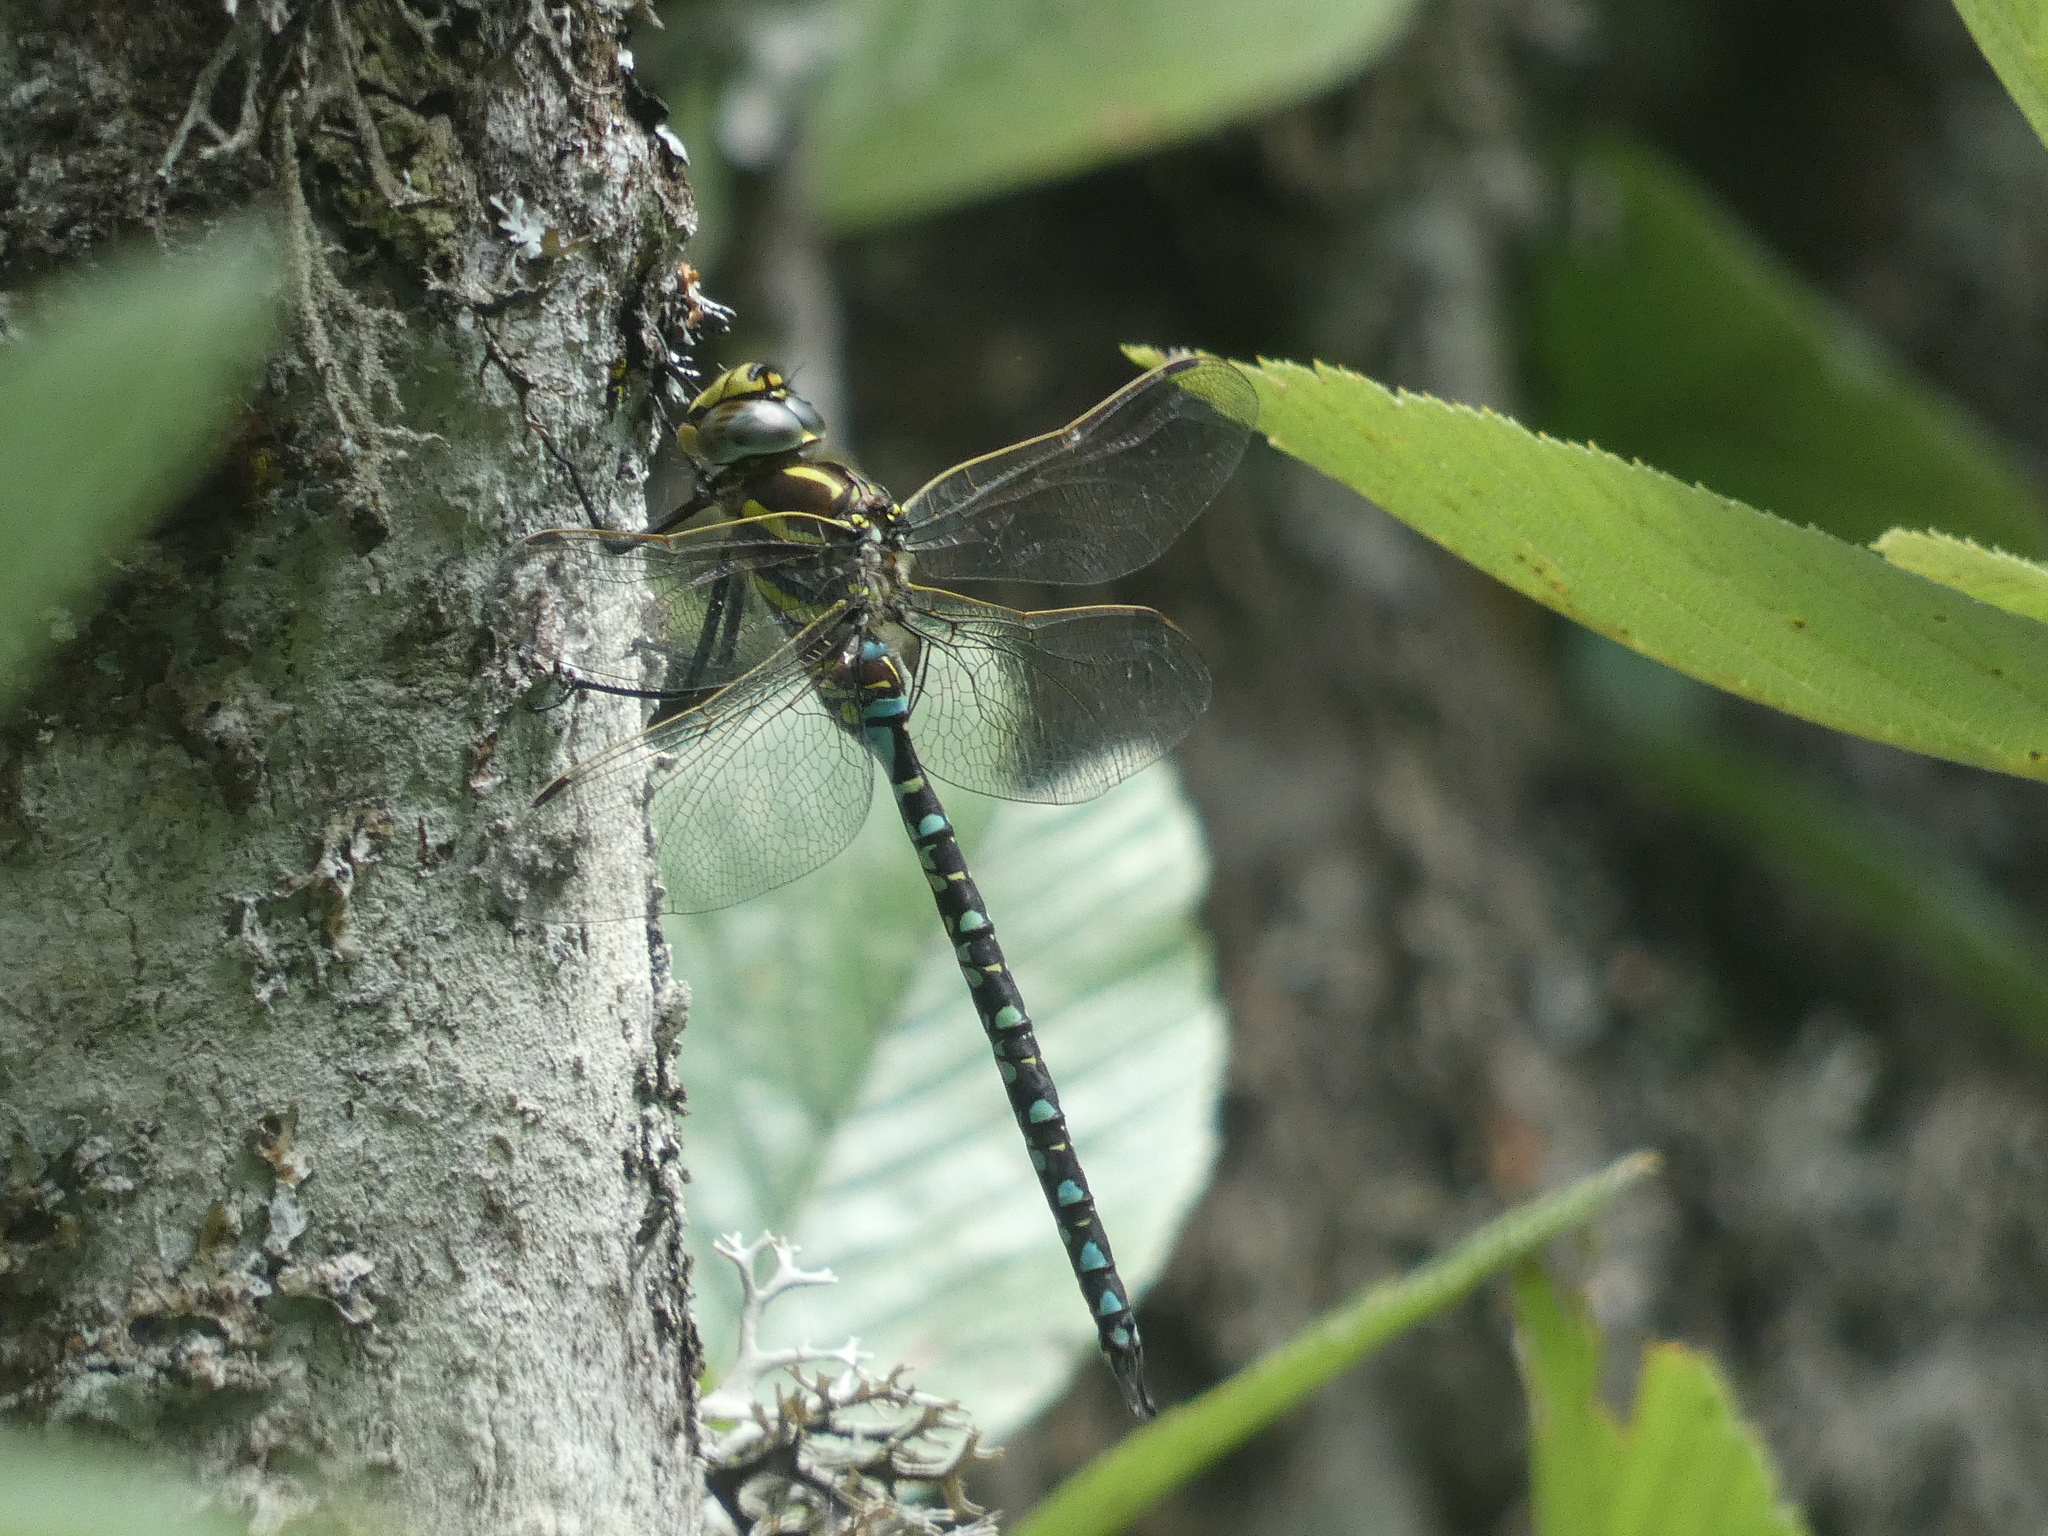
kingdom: Animalia
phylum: Arthropoda
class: Insecta
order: Odonata
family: Aeshnidae
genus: Aeshna
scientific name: Aeshna juncea
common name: Moorland hawker
